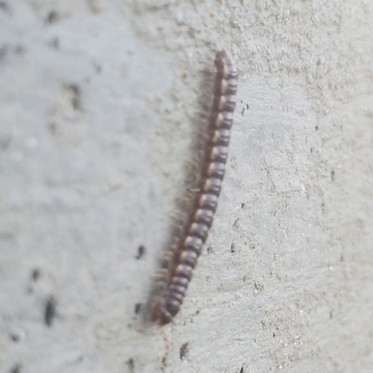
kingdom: Animalia
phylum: Arthropoda
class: Diplopoda
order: Polydesmida
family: Paradoxosomatidae
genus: Oxidus
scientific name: Oxidus gracilis
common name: Greenhouse millipede
